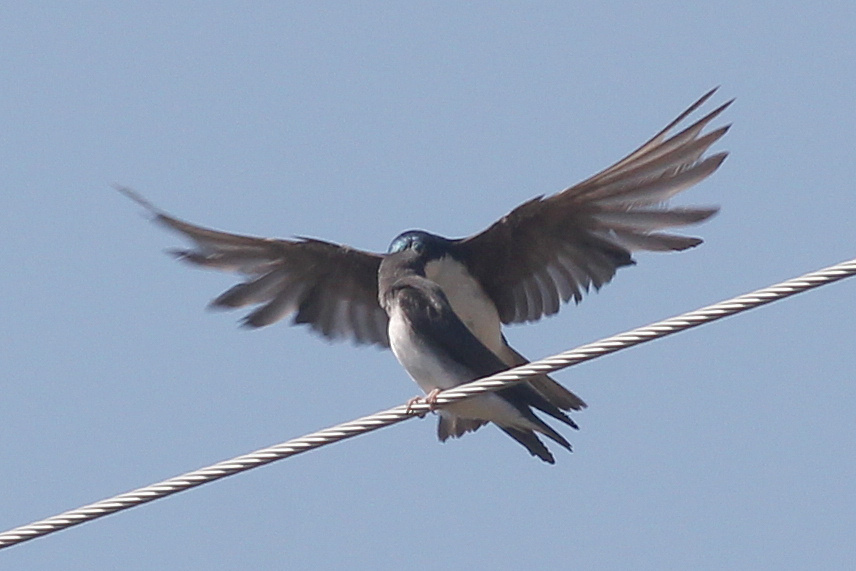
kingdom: Animalia
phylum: Chordata
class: Aves
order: Passeriformes
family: Hirundinidae
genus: Tachycineta
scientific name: Tachycineta bicolor
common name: Tree swallow
